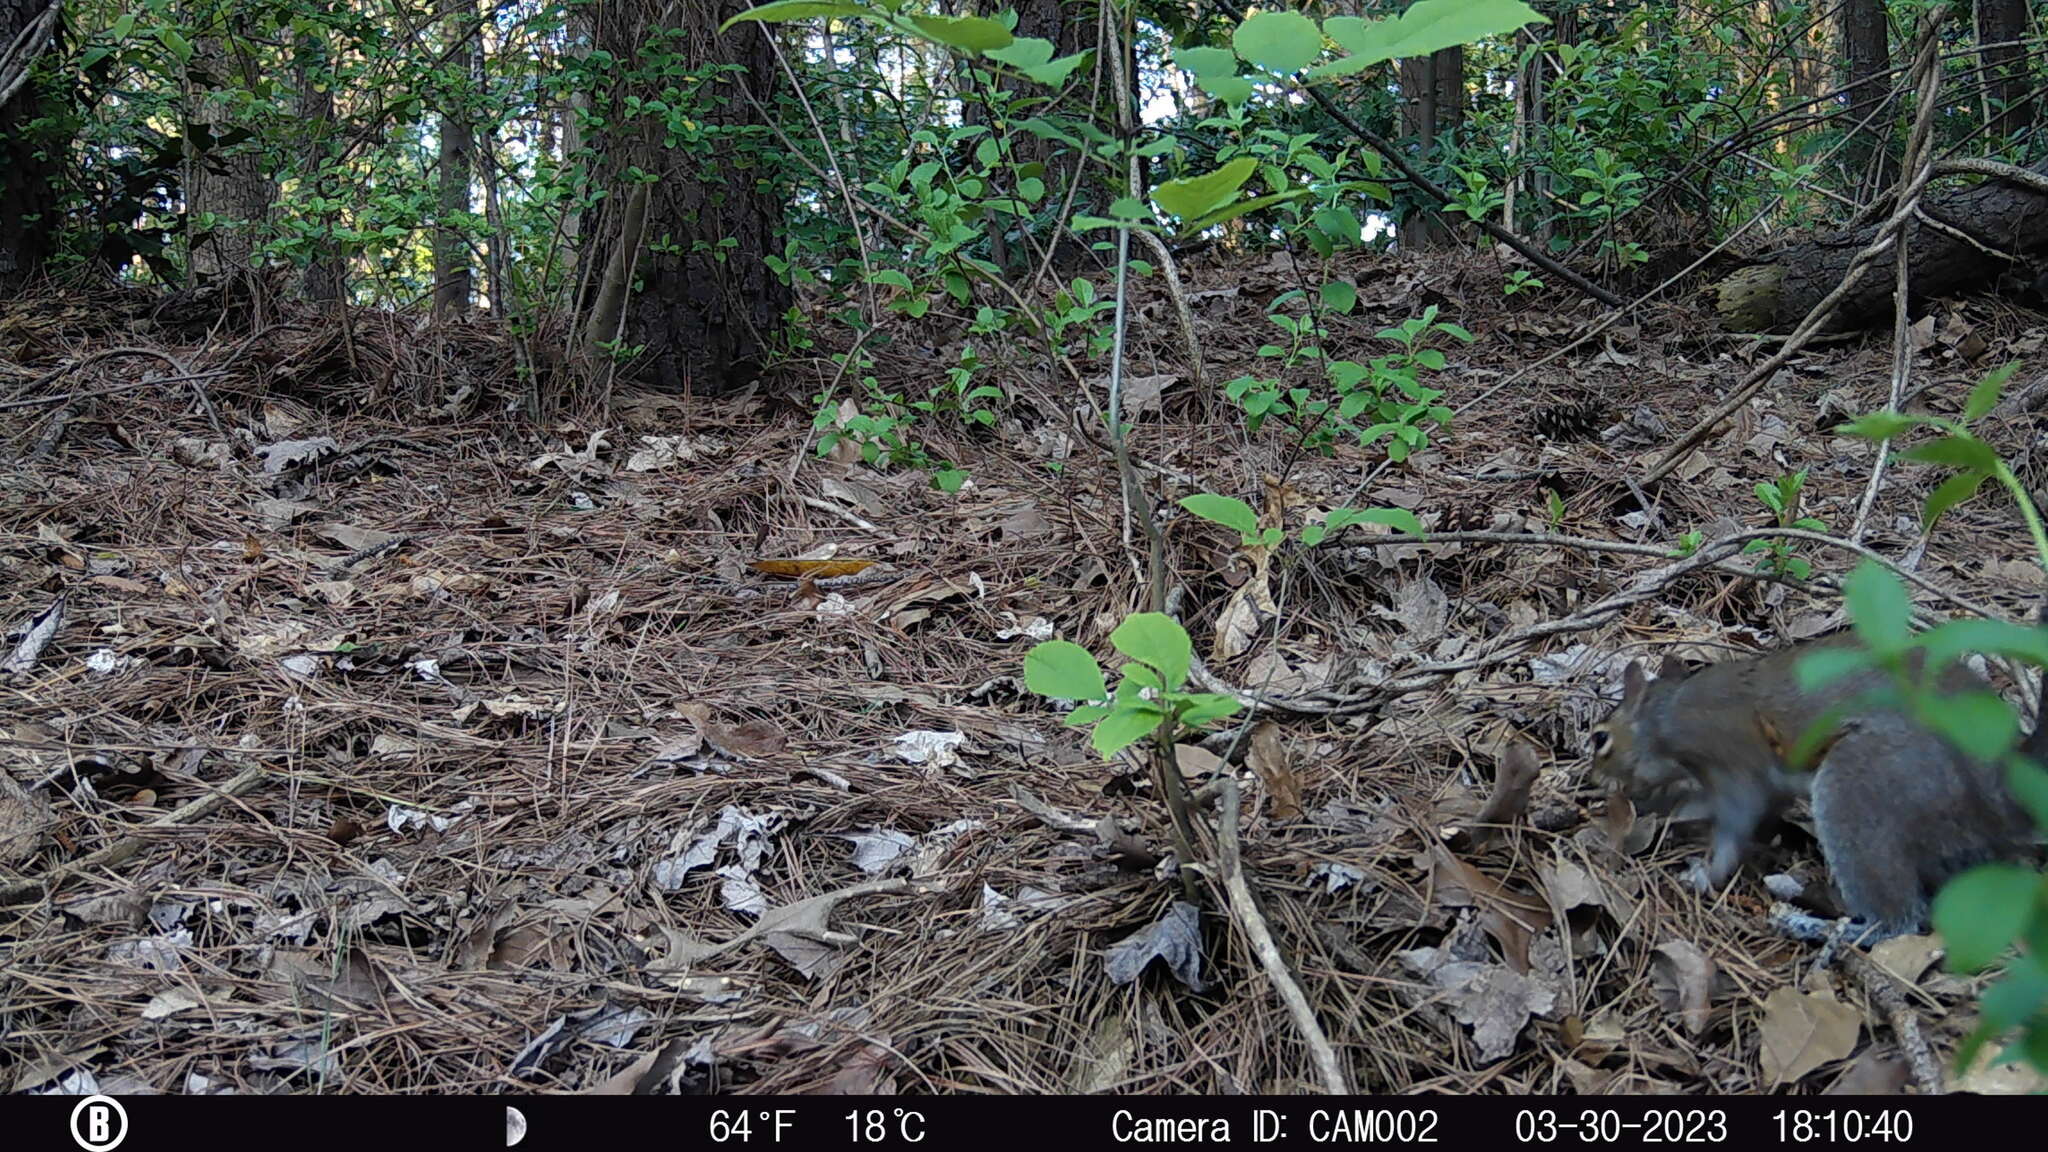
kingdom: Animalia
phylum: Chordata
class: Mammalia
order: Rodentia
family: Sciuridae
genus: Sciurus
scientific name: Sciurus carolinensis
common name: Eastern gray squirrel
